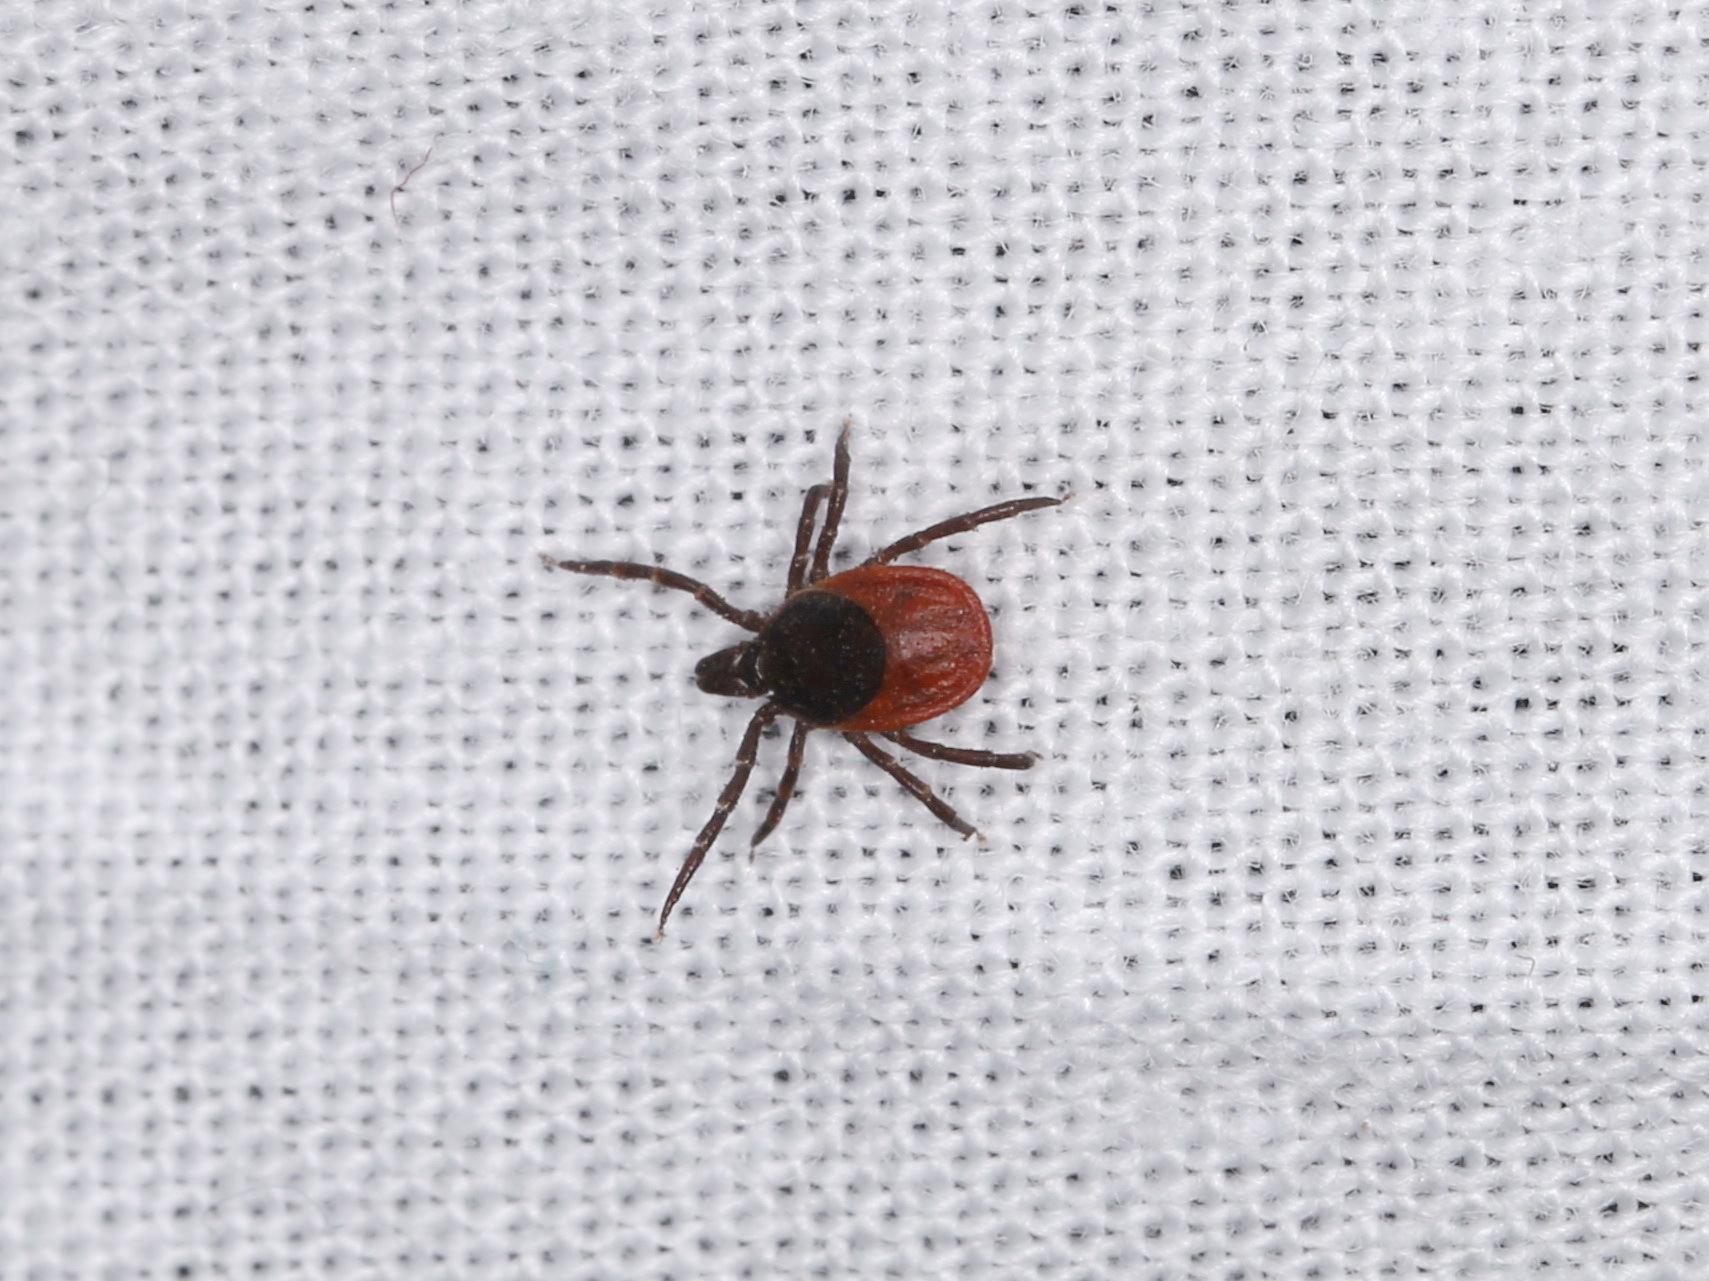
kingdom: Animalia
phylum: Arthropoda
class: Arachnida
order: Ixodida
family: Ixodidae
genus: Ixodes
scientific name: Ixodes ricinus
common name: Castor bean tick
